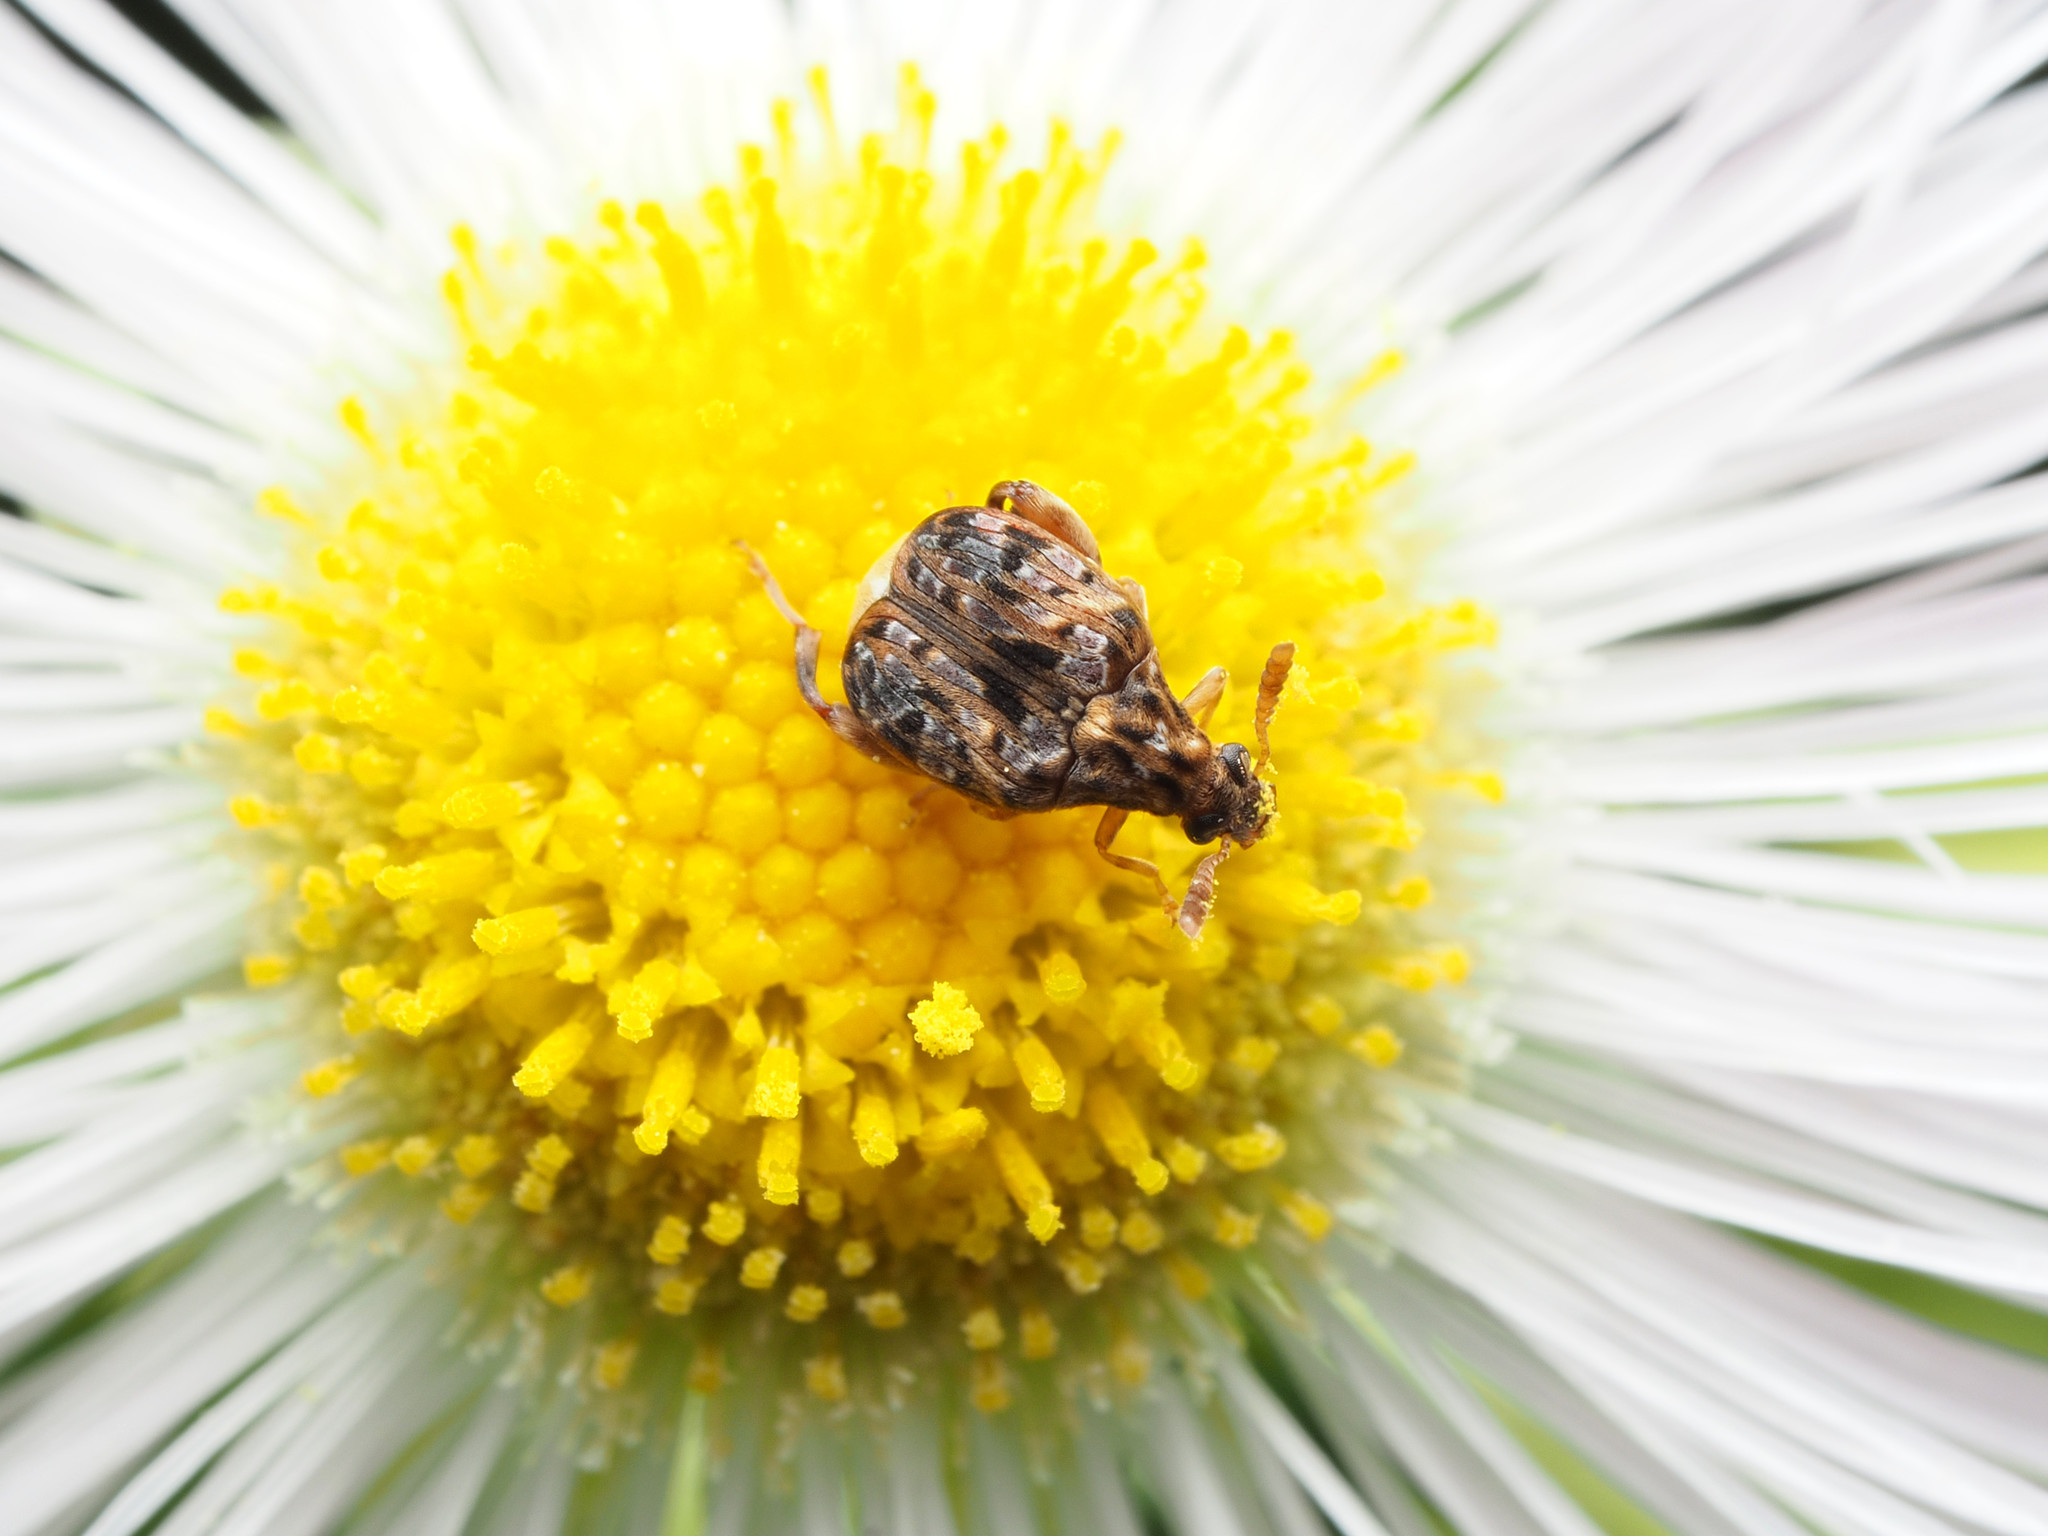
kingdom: Animalia
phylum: Arthropoda
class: Insecta
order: Coleoptera
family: Chrysomelidae
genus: Gibbobruchus
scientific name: Gibbobruchus mimus
